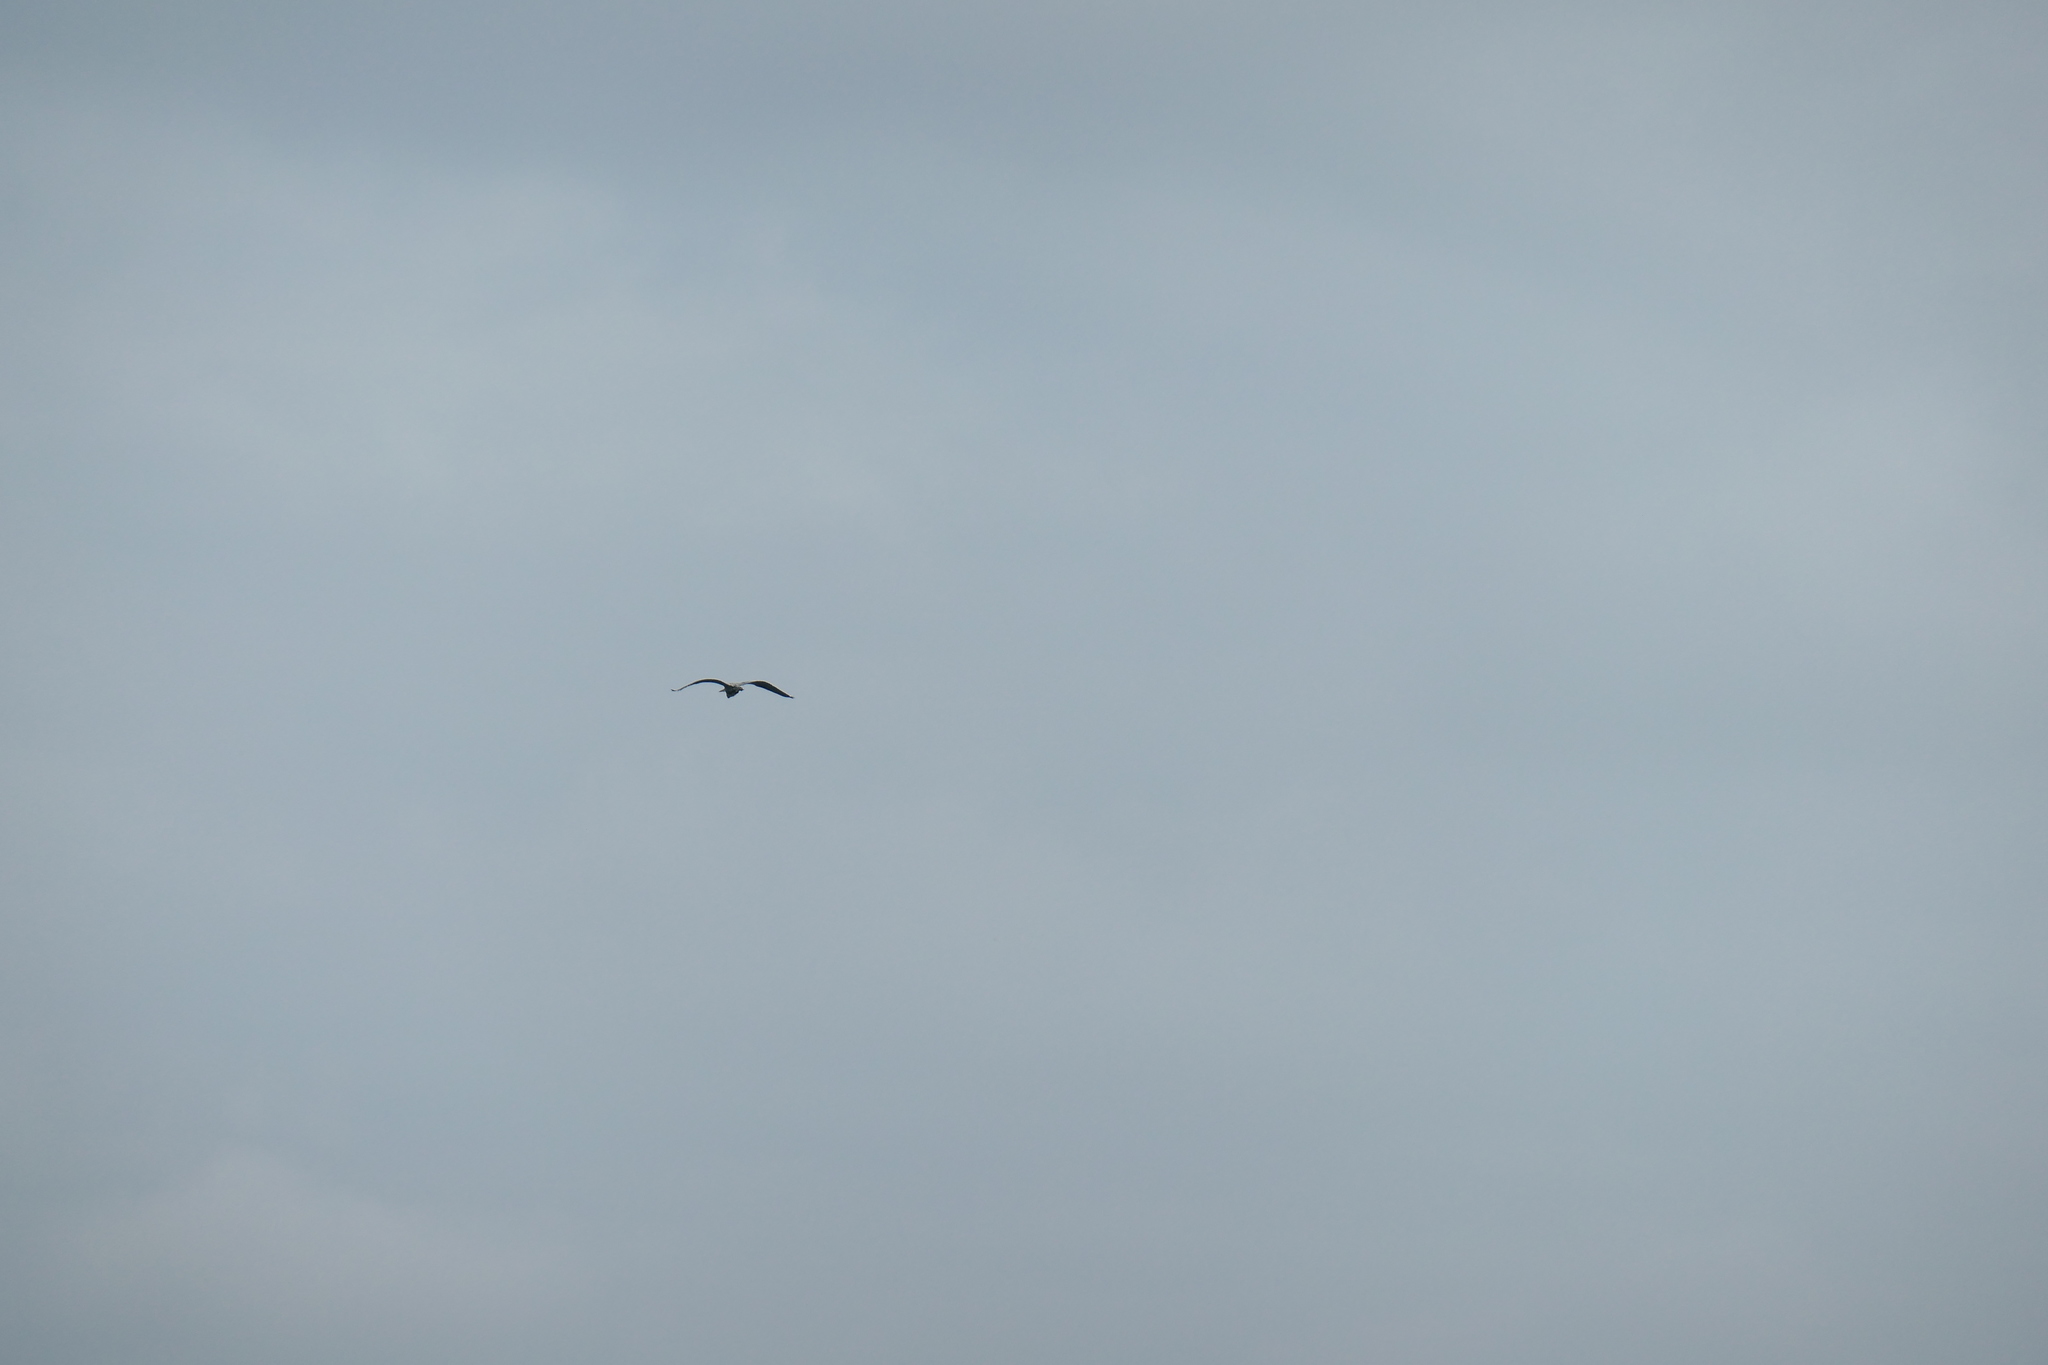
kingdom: Animalia
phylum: Chordata
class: Aves
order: Pelecaniformes
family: Ardeidae
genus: Ardea
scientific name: Ardea herodias
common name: Great blue heron
